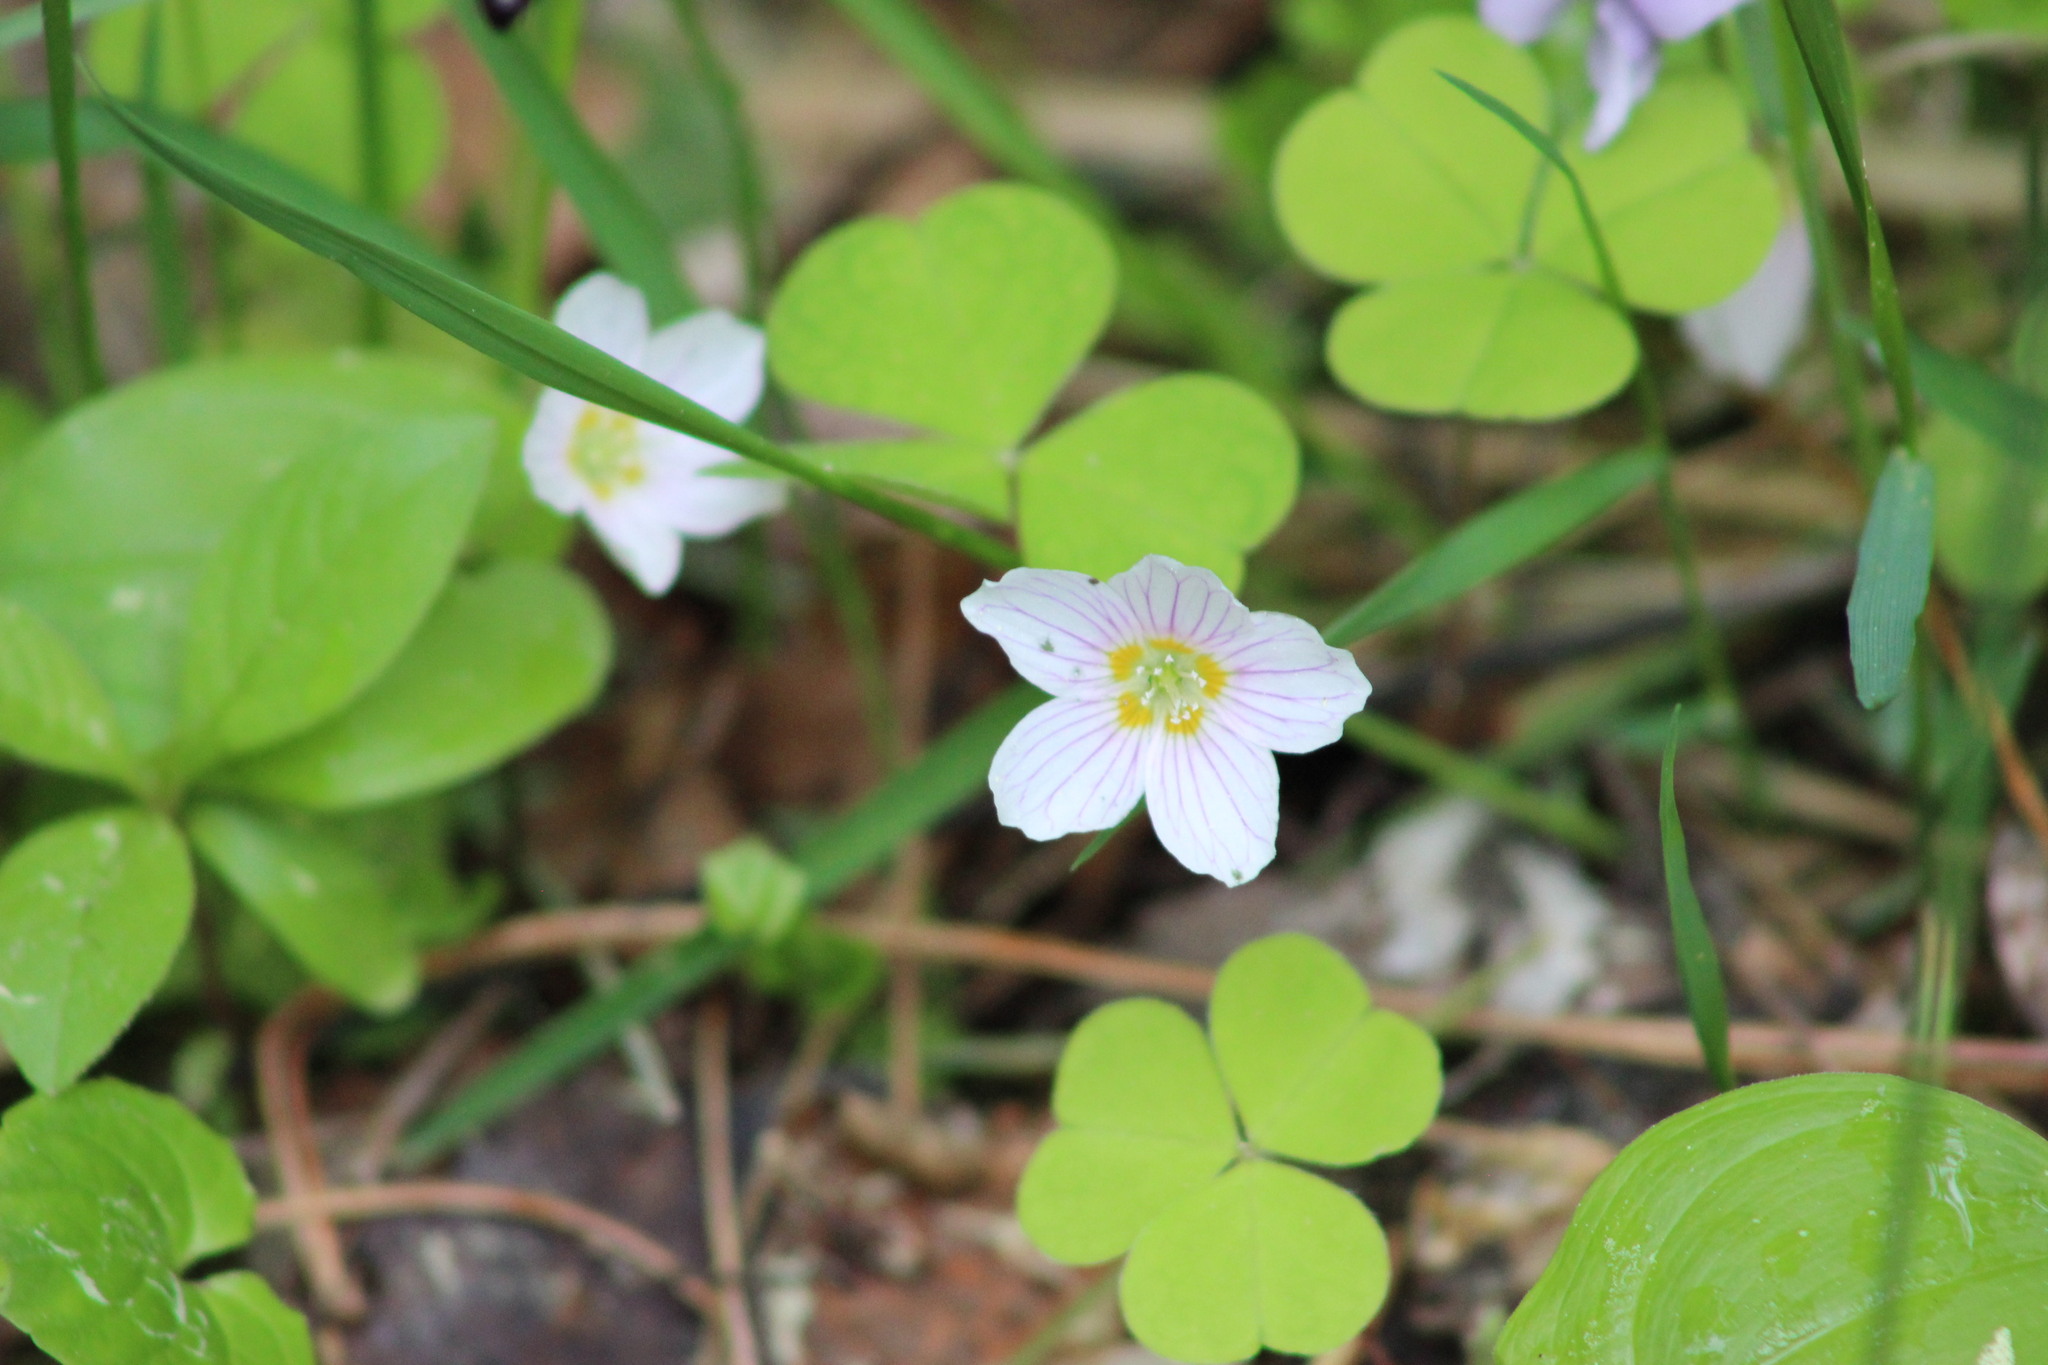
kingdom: Plantae
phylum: Tracheophyta
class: Magnoliopsida
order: Oxalidales
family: Oxalidaceae
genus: Oxalis
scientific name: Oxalis acetosella
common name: Wood-sorrel
